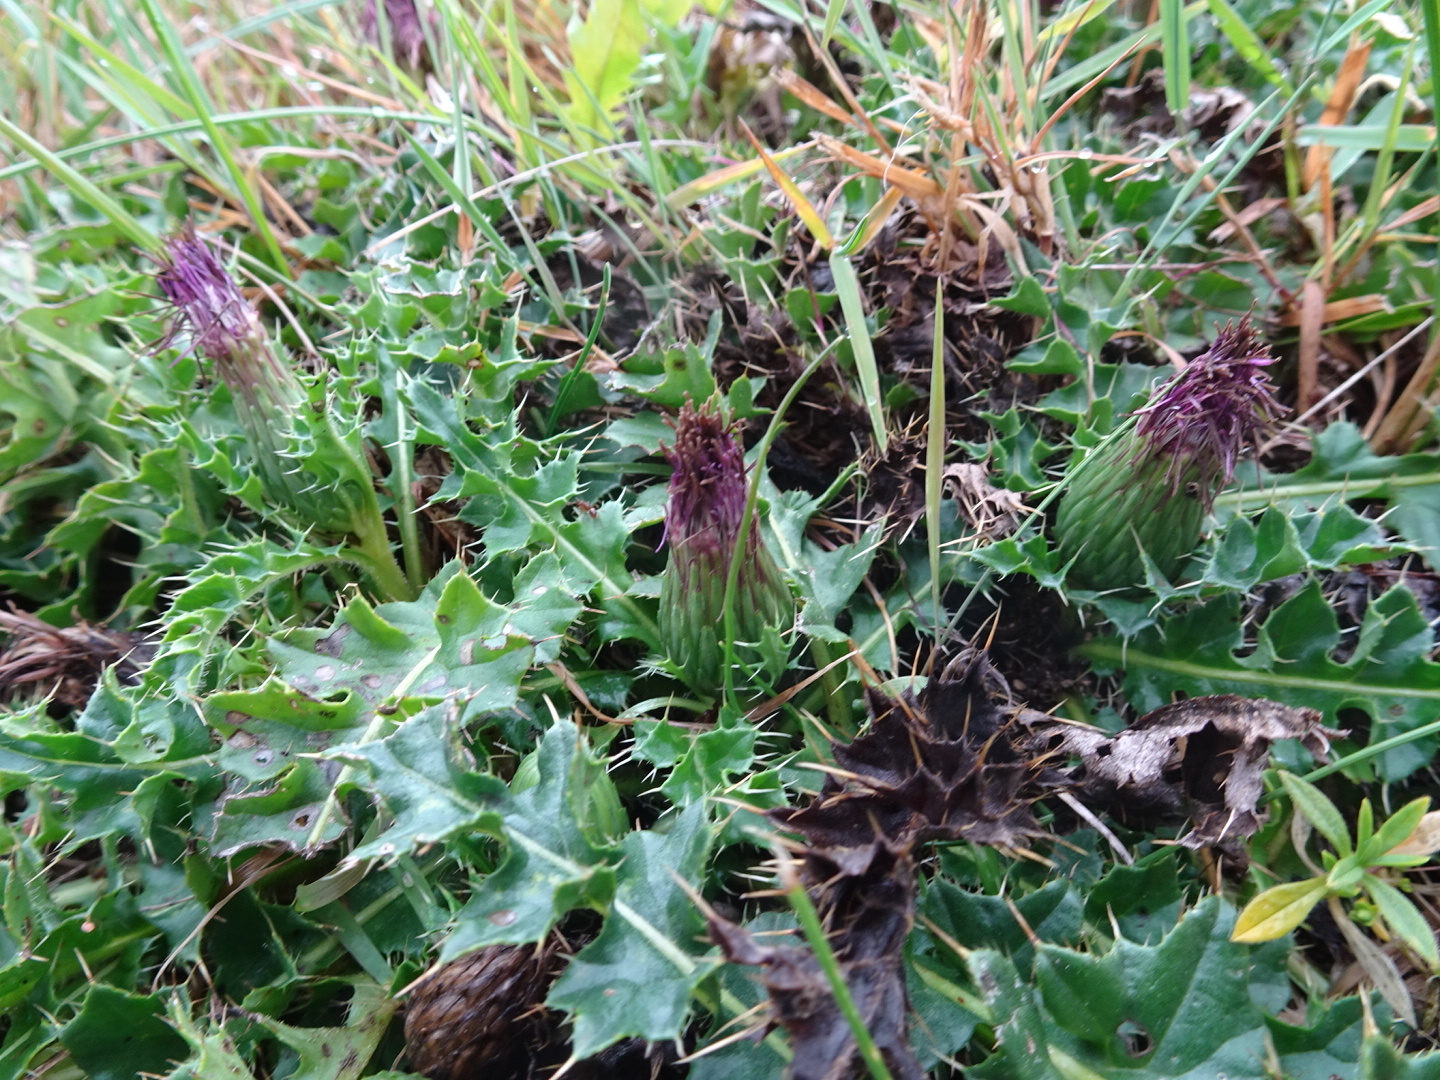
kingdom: Plantae
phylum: Tracheophyta
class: Magnoliopsida
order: Asterales
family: Asteraceae
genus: Cirsium
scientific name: Cirsium acaulon
